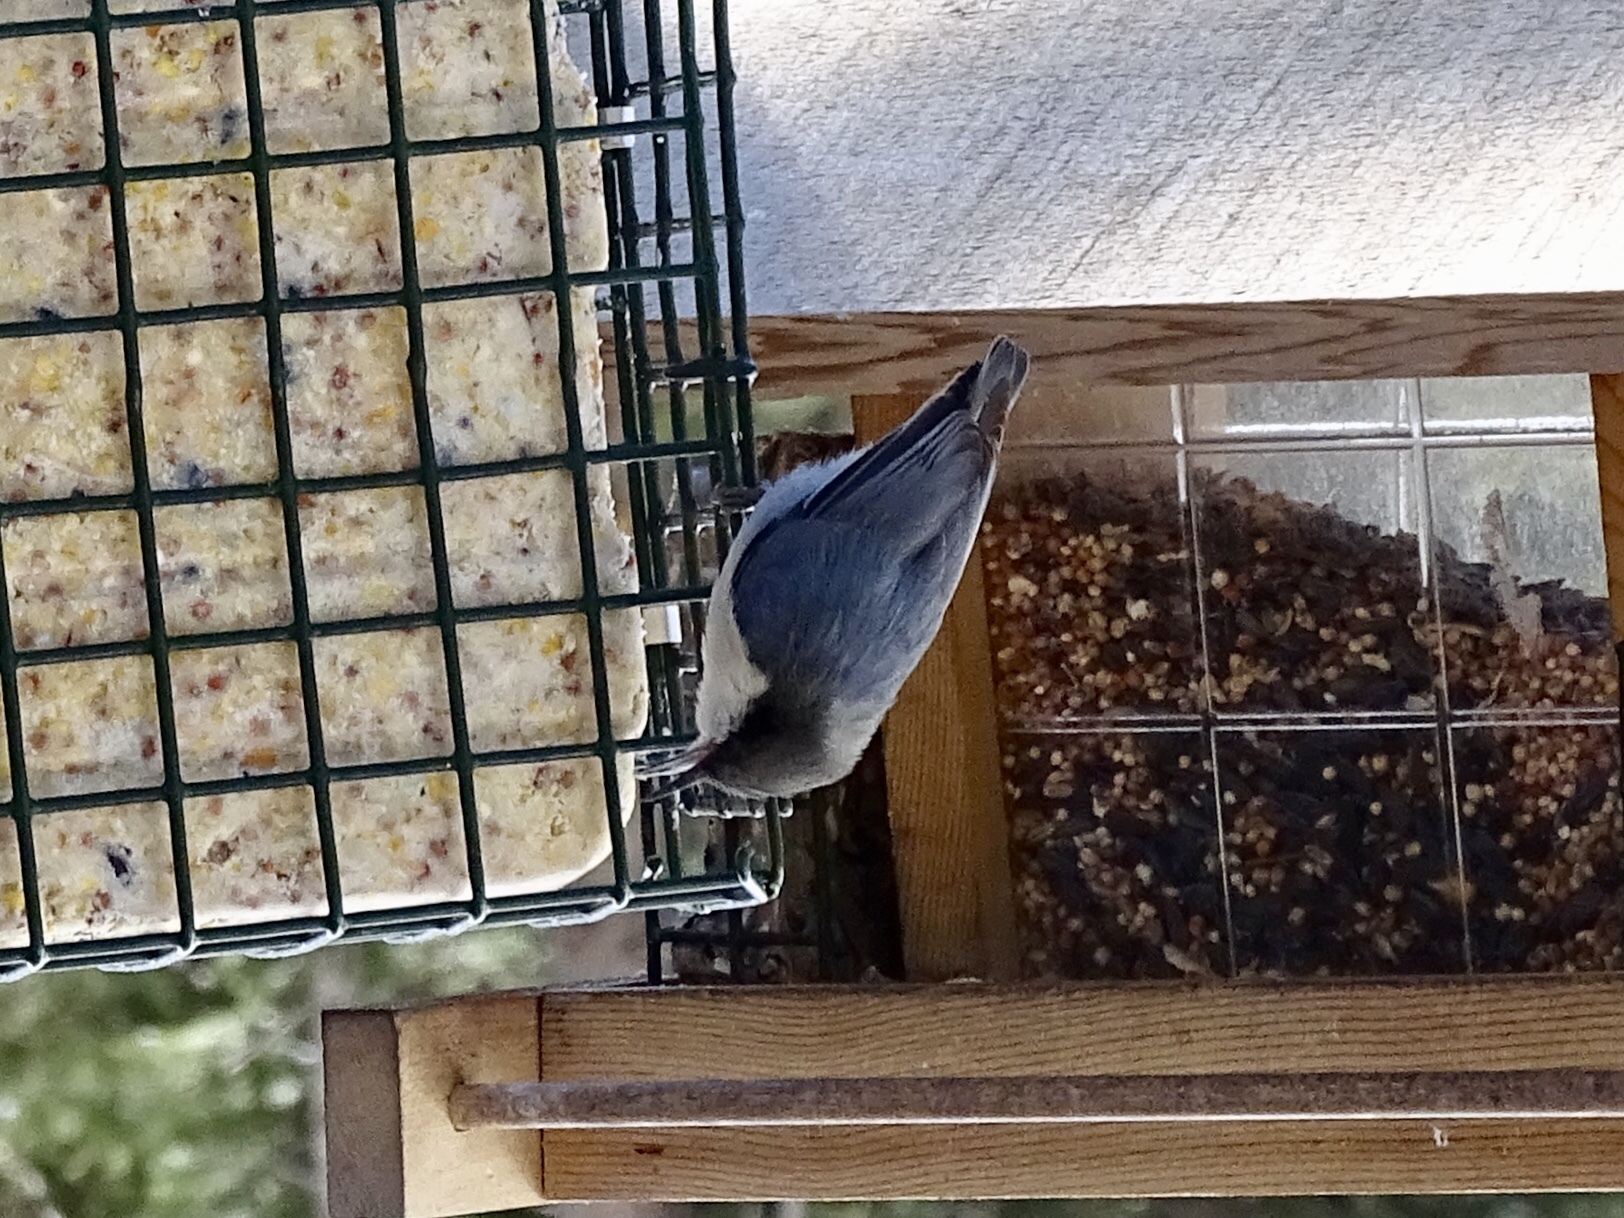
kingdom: Animalia
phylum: Chordata
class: Aves
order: Passeriformes
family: Sittidae
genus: Sitta
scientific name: Sitta pygmaea
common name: Pygmy nuthatch
